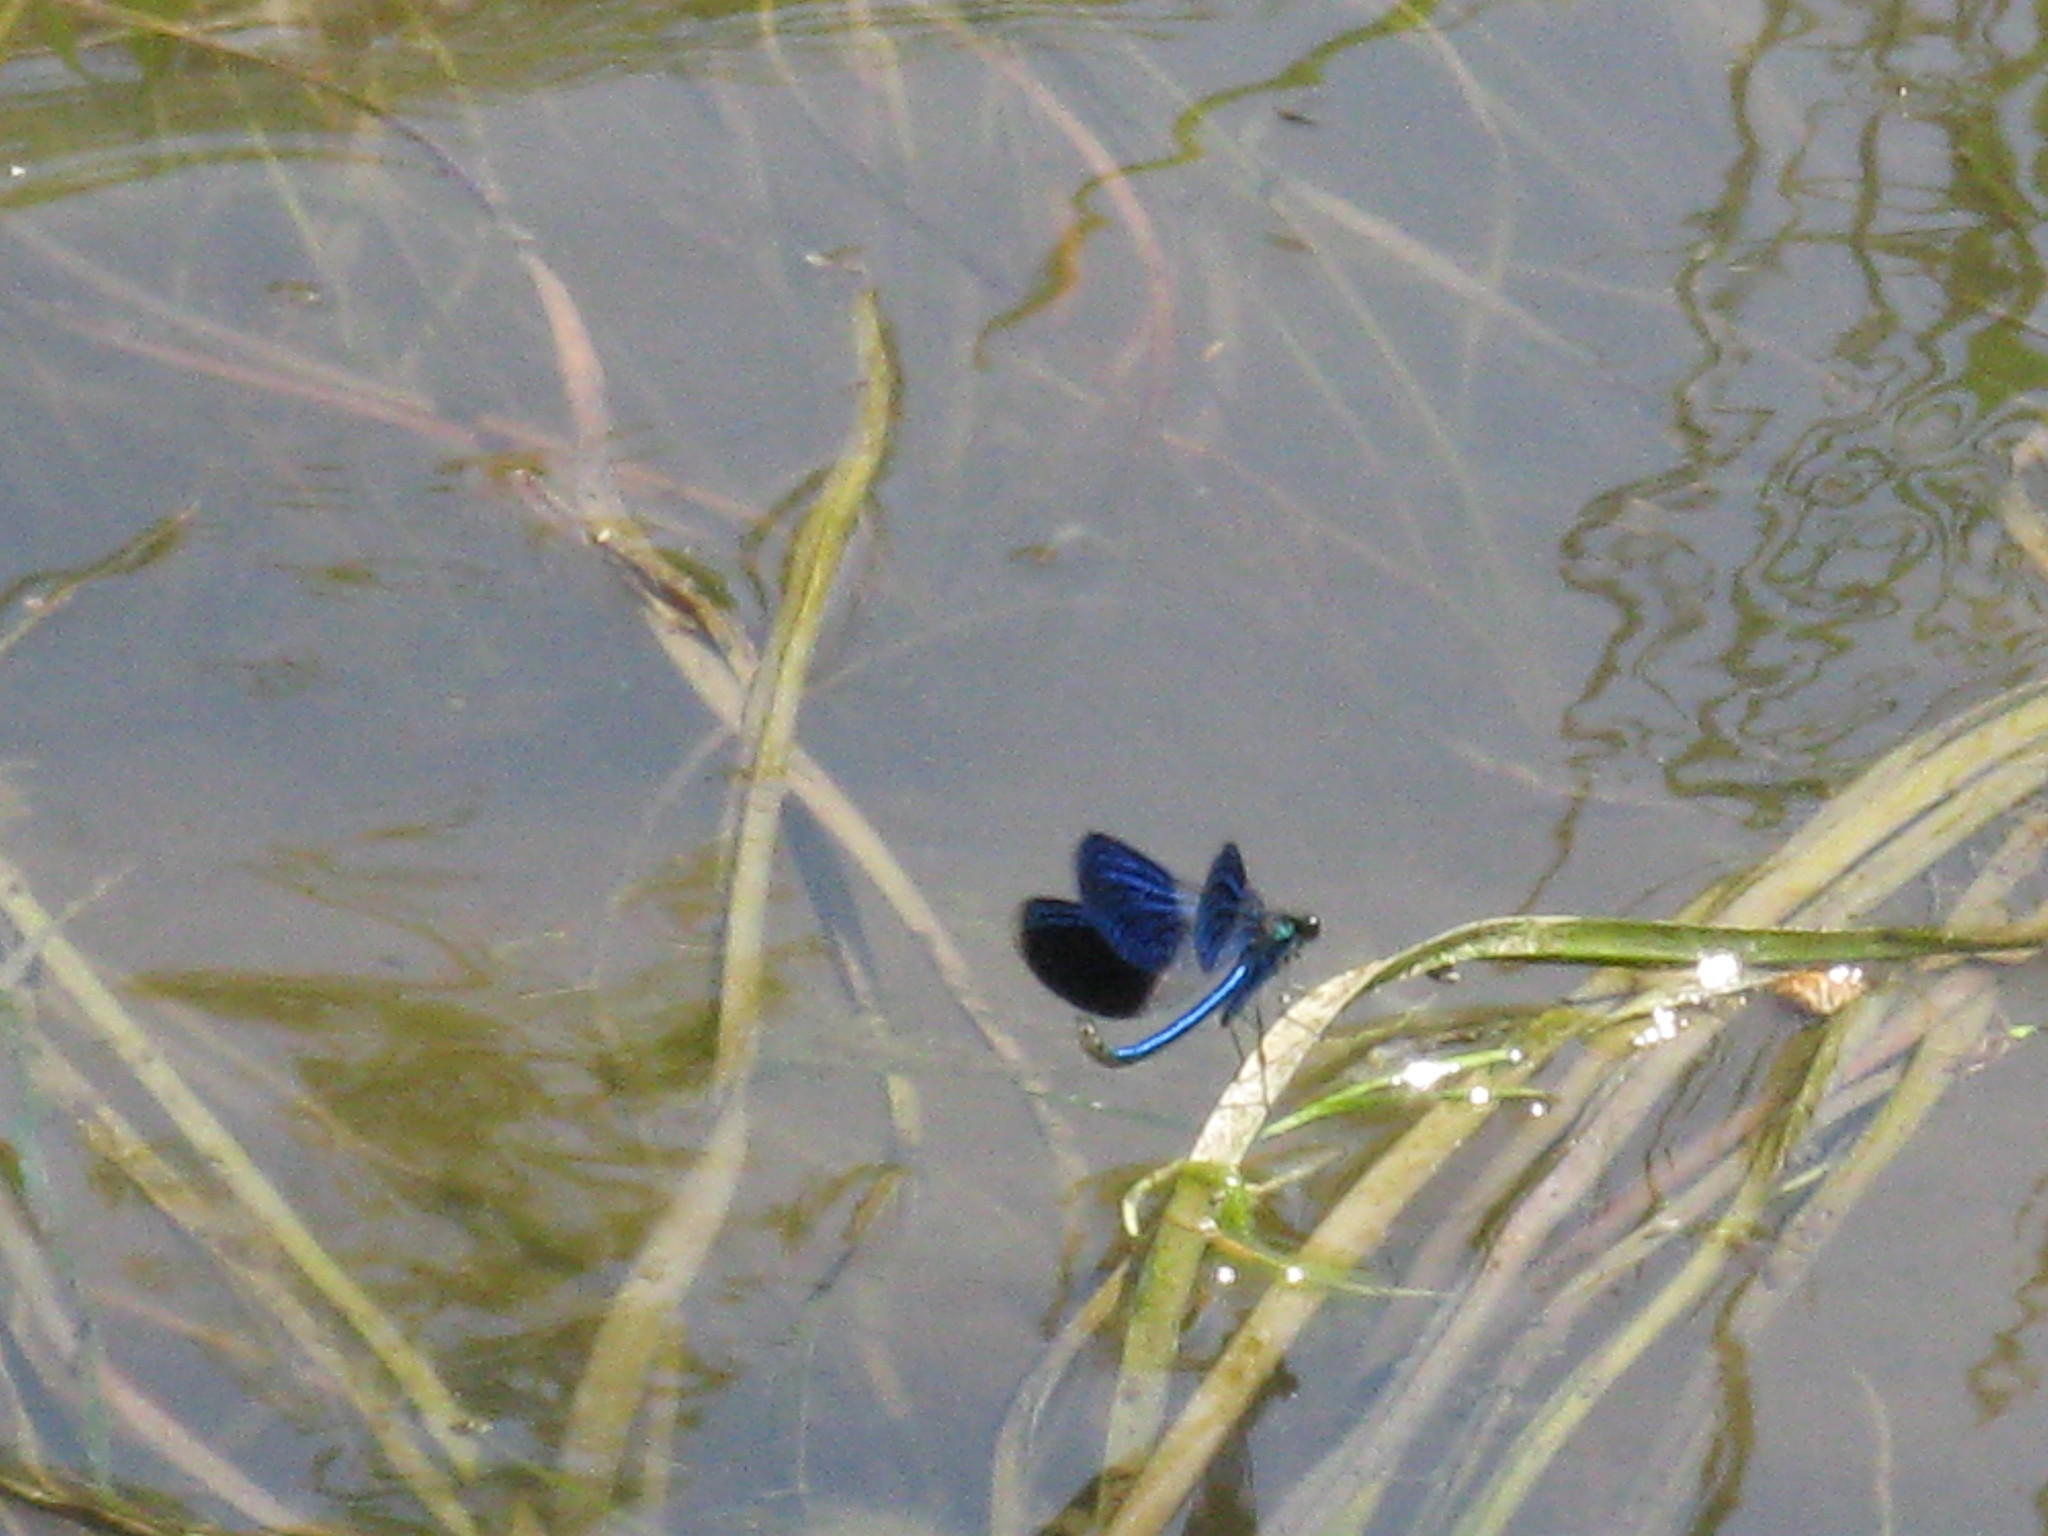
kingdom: Animalia
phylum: Arthropoda
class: Insecta
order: Odonata
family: Calopterygidae
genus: Calopteryx
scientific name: Calopteryx splendens
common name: Banded demoiselle
